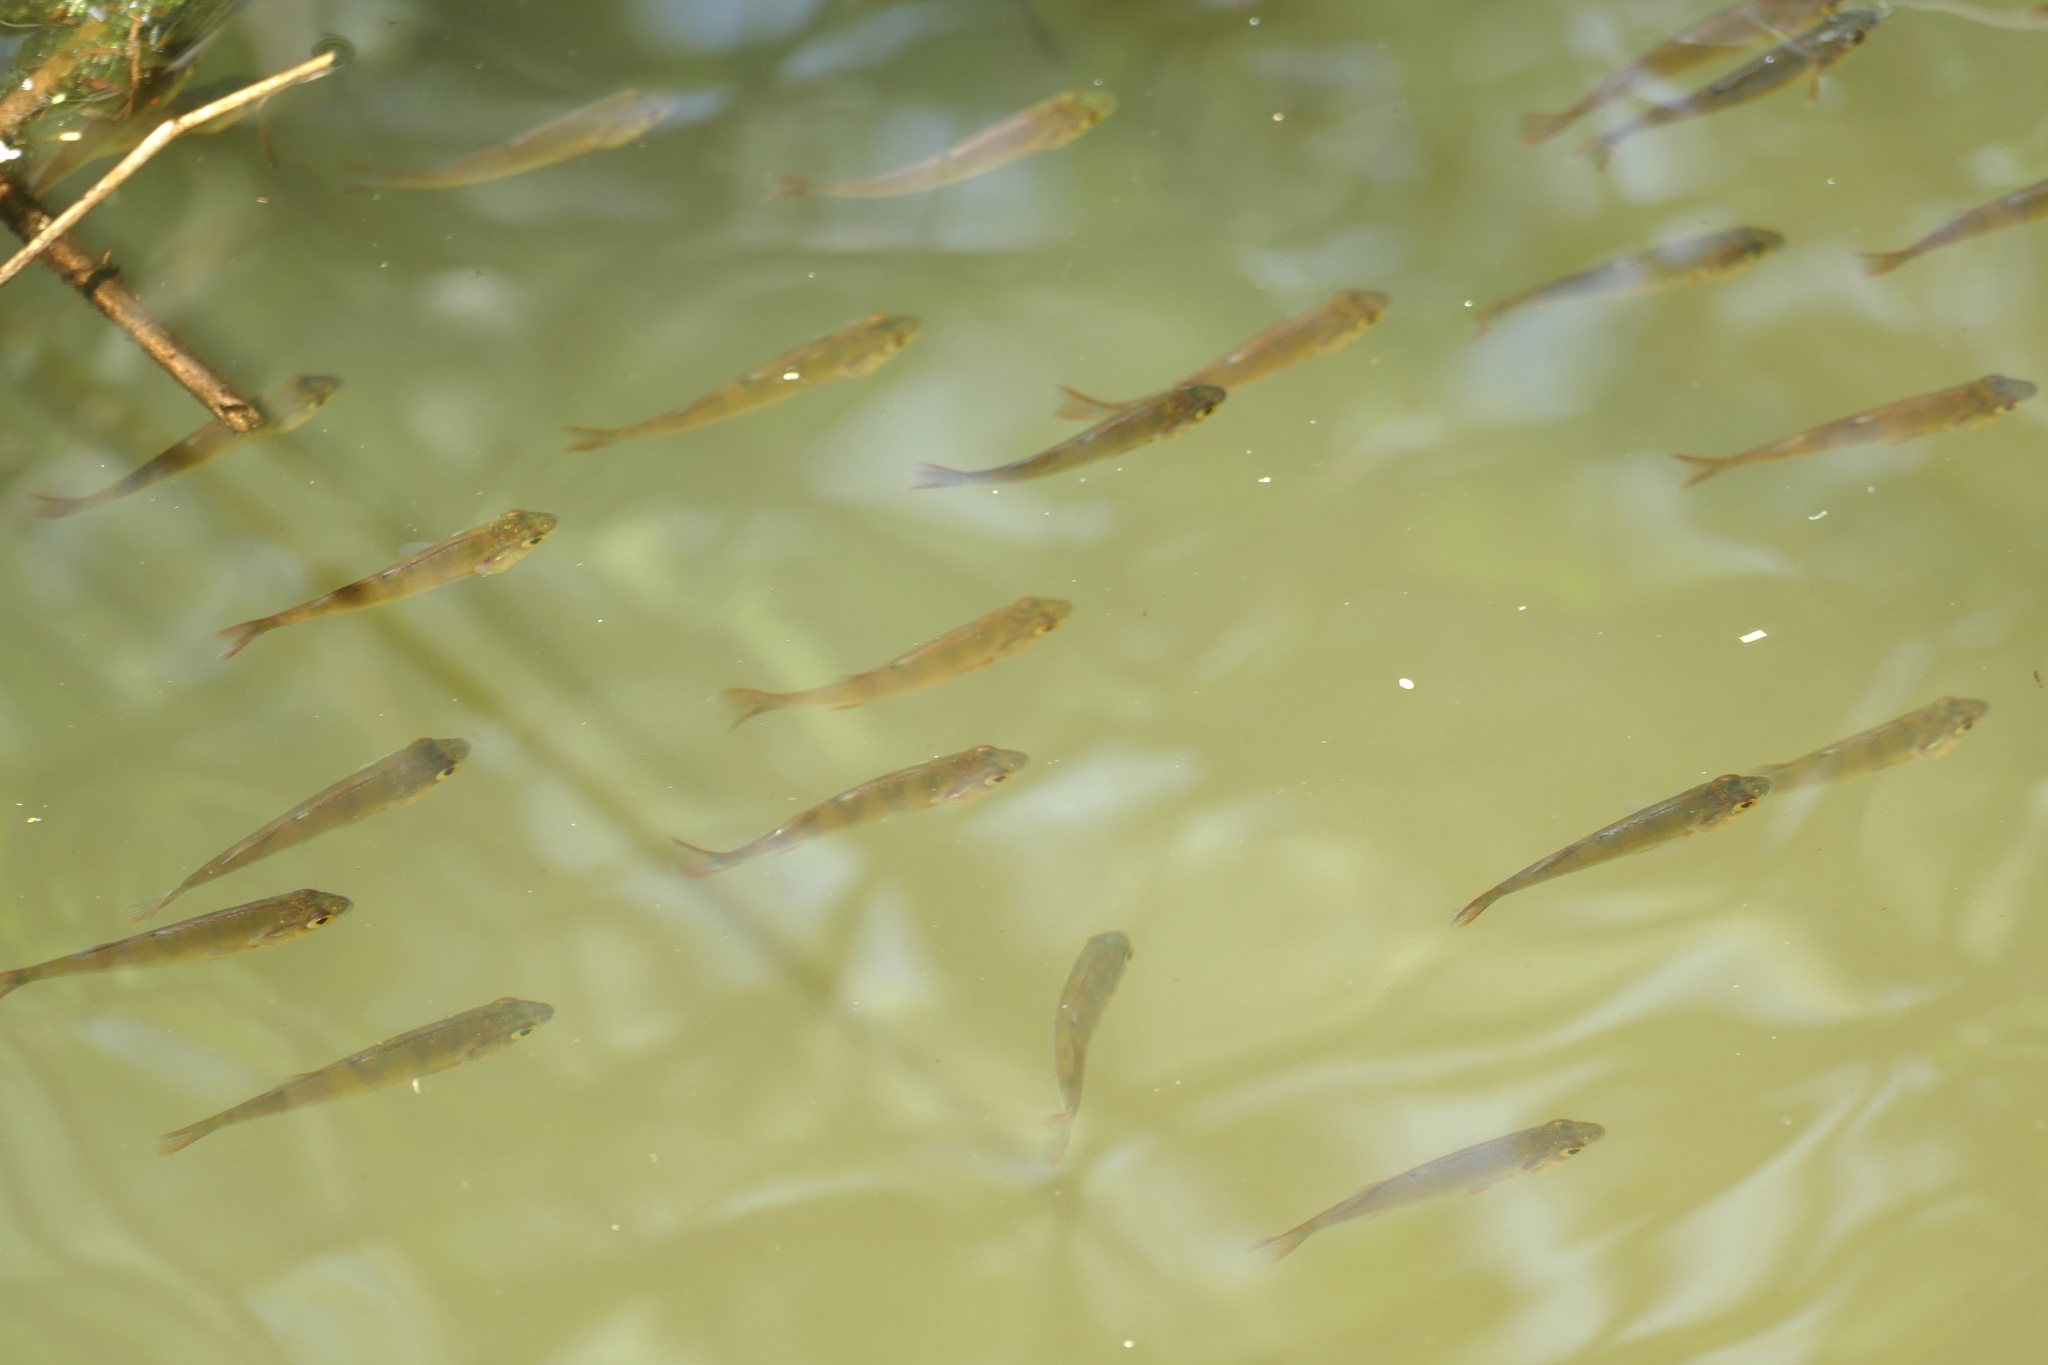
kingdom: Animalia
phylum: Chordata
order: Perciformes
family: Percidae
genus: Perca
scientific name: Perca fluviatilis
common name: Perch
